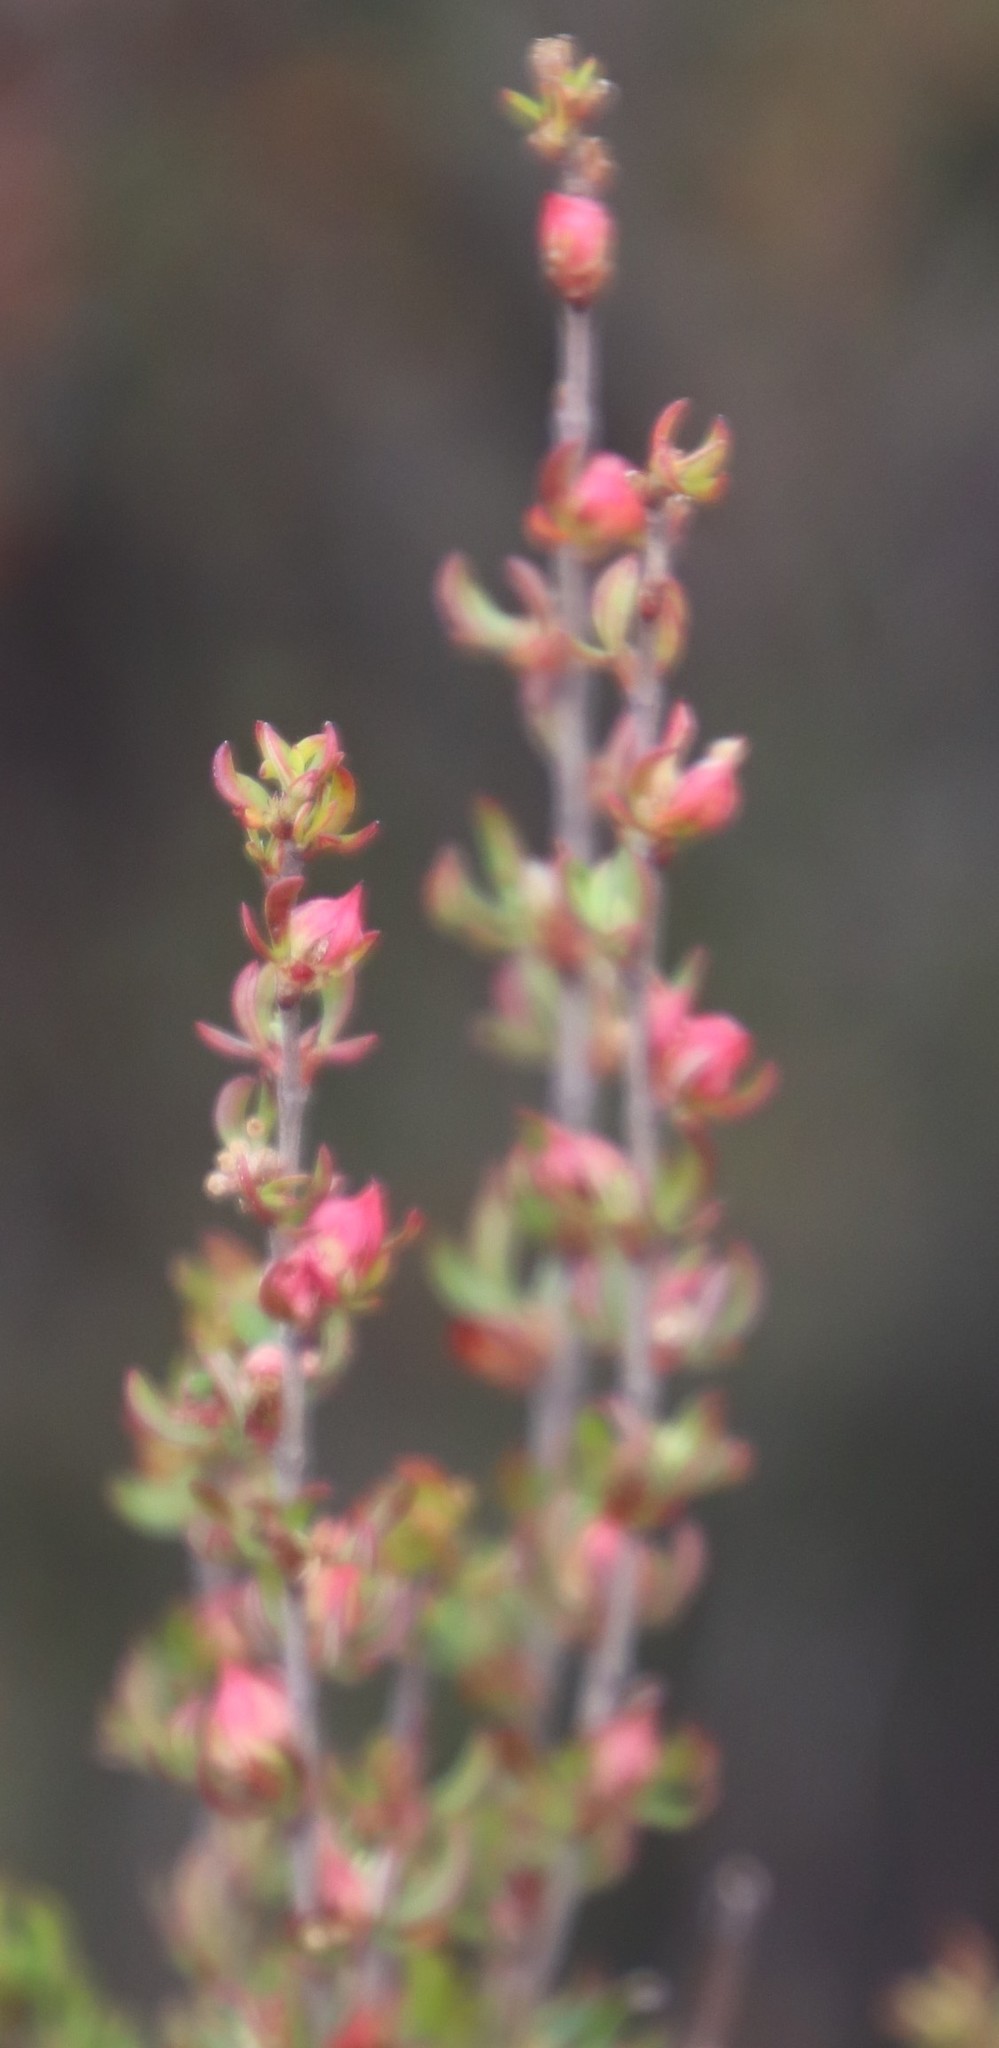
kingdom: Plantae
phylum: Tracheophyta
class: Magnoliopsida
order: Rosales
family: Rosaceae
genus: Cliffortia
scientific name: Cliffortia falcata
